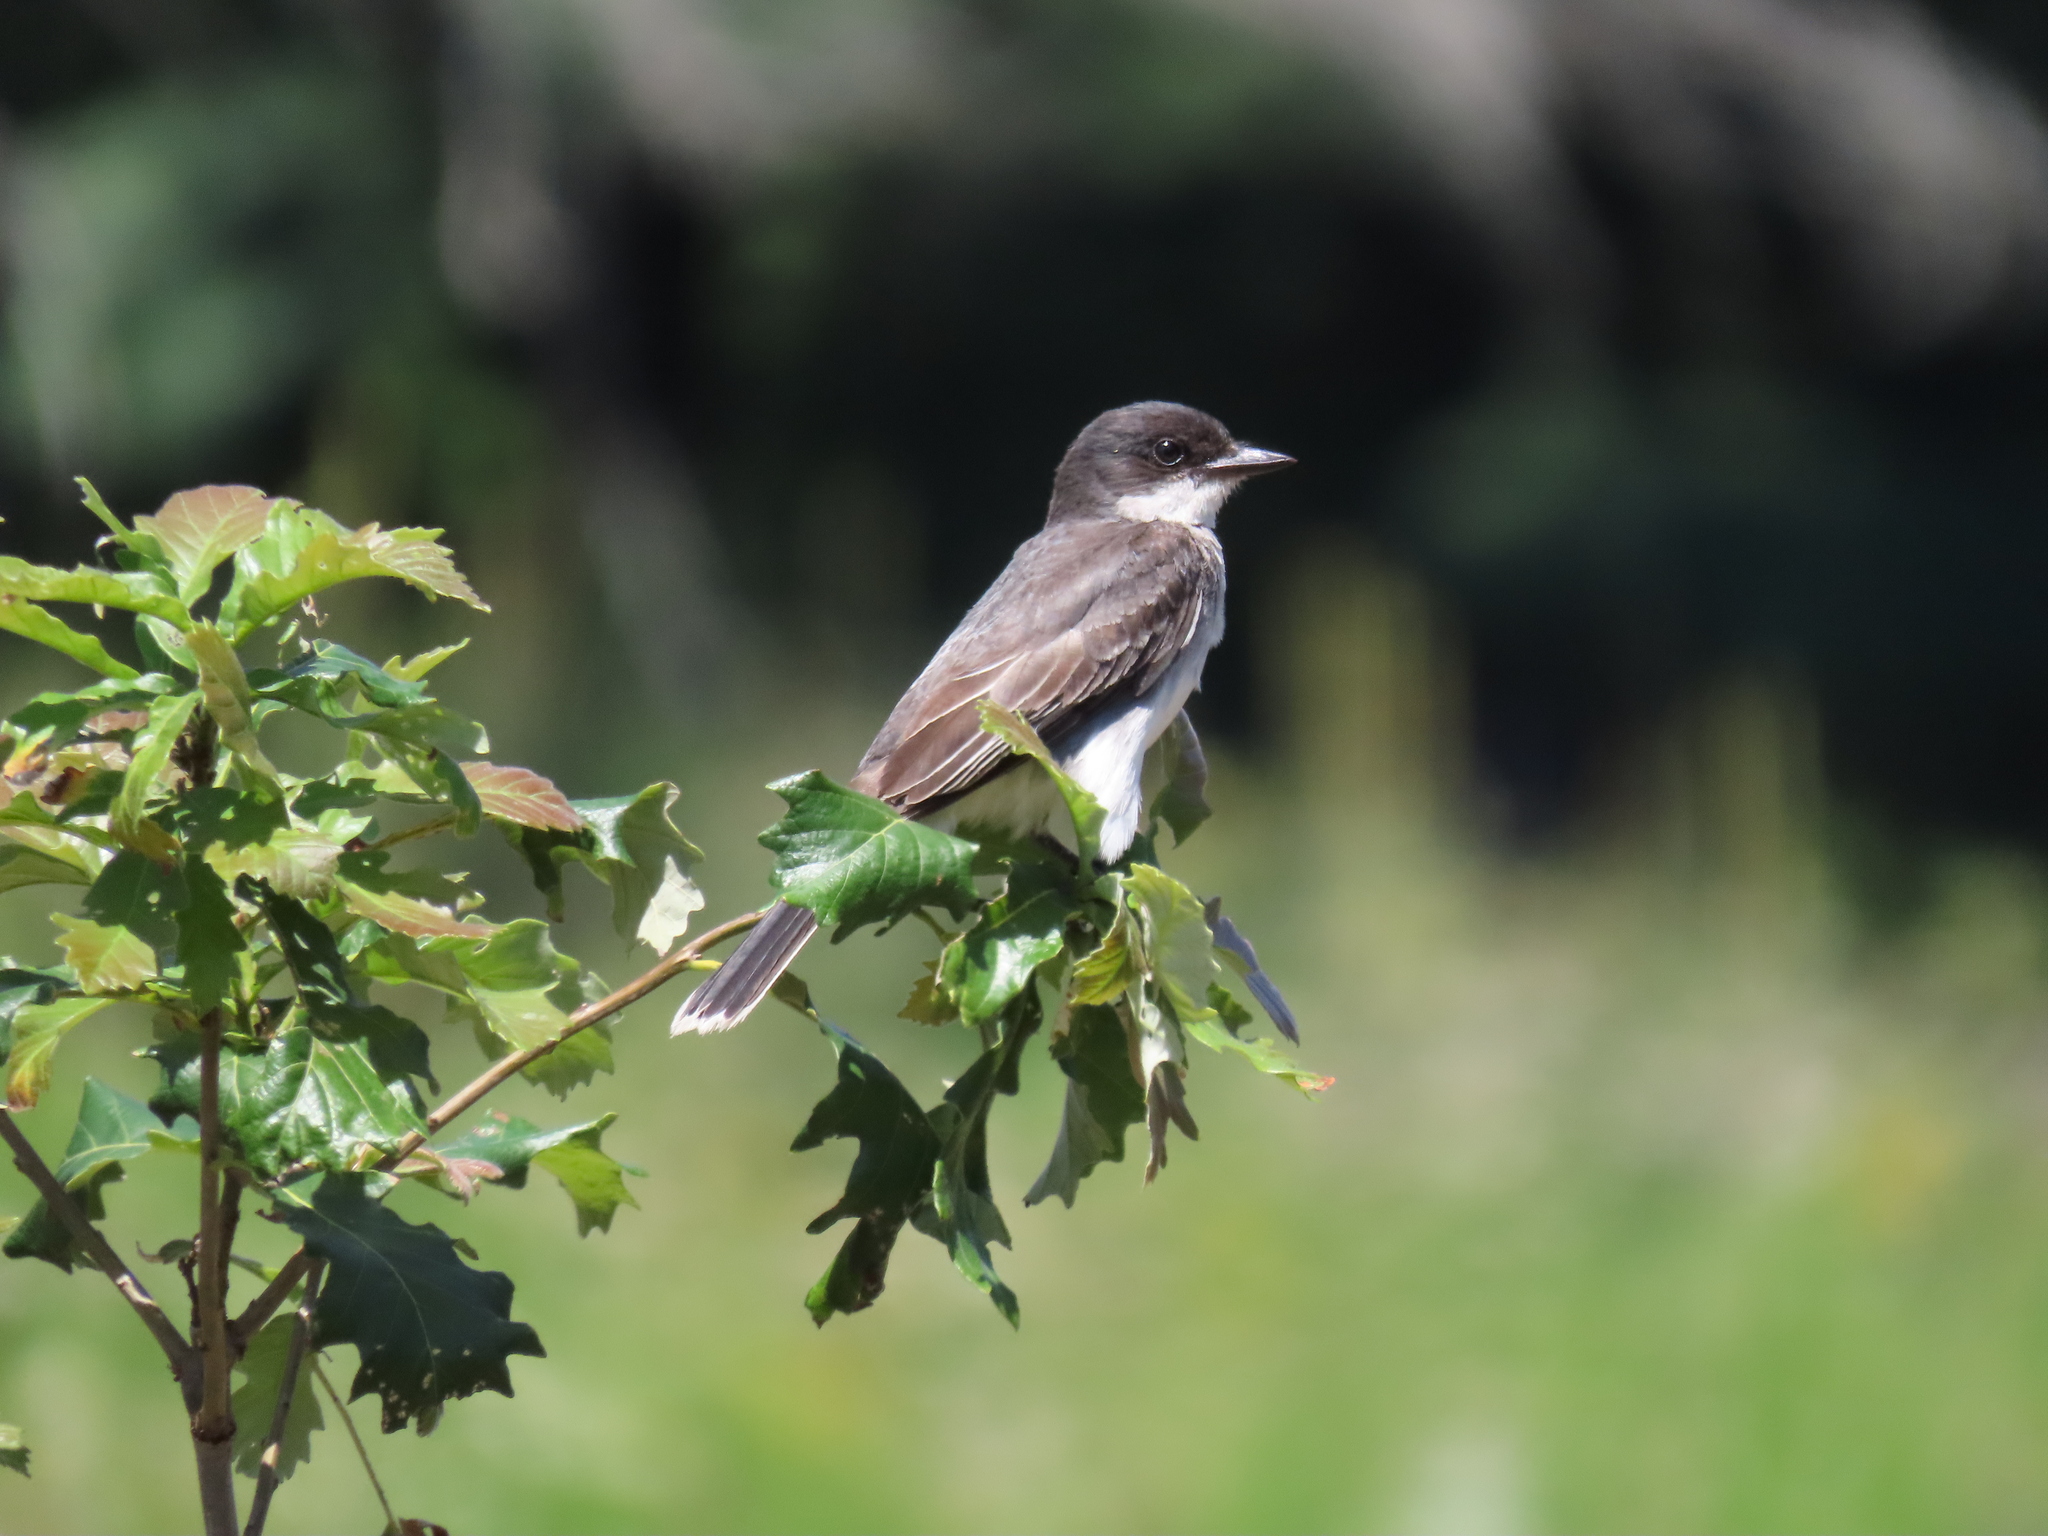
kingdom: Animalia
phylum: Chordata
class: Aves
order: Passeriformes
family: Tyrannidae
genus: Tyrannus
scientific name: Tyrannus tyrannus
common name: Eastern kingbird
